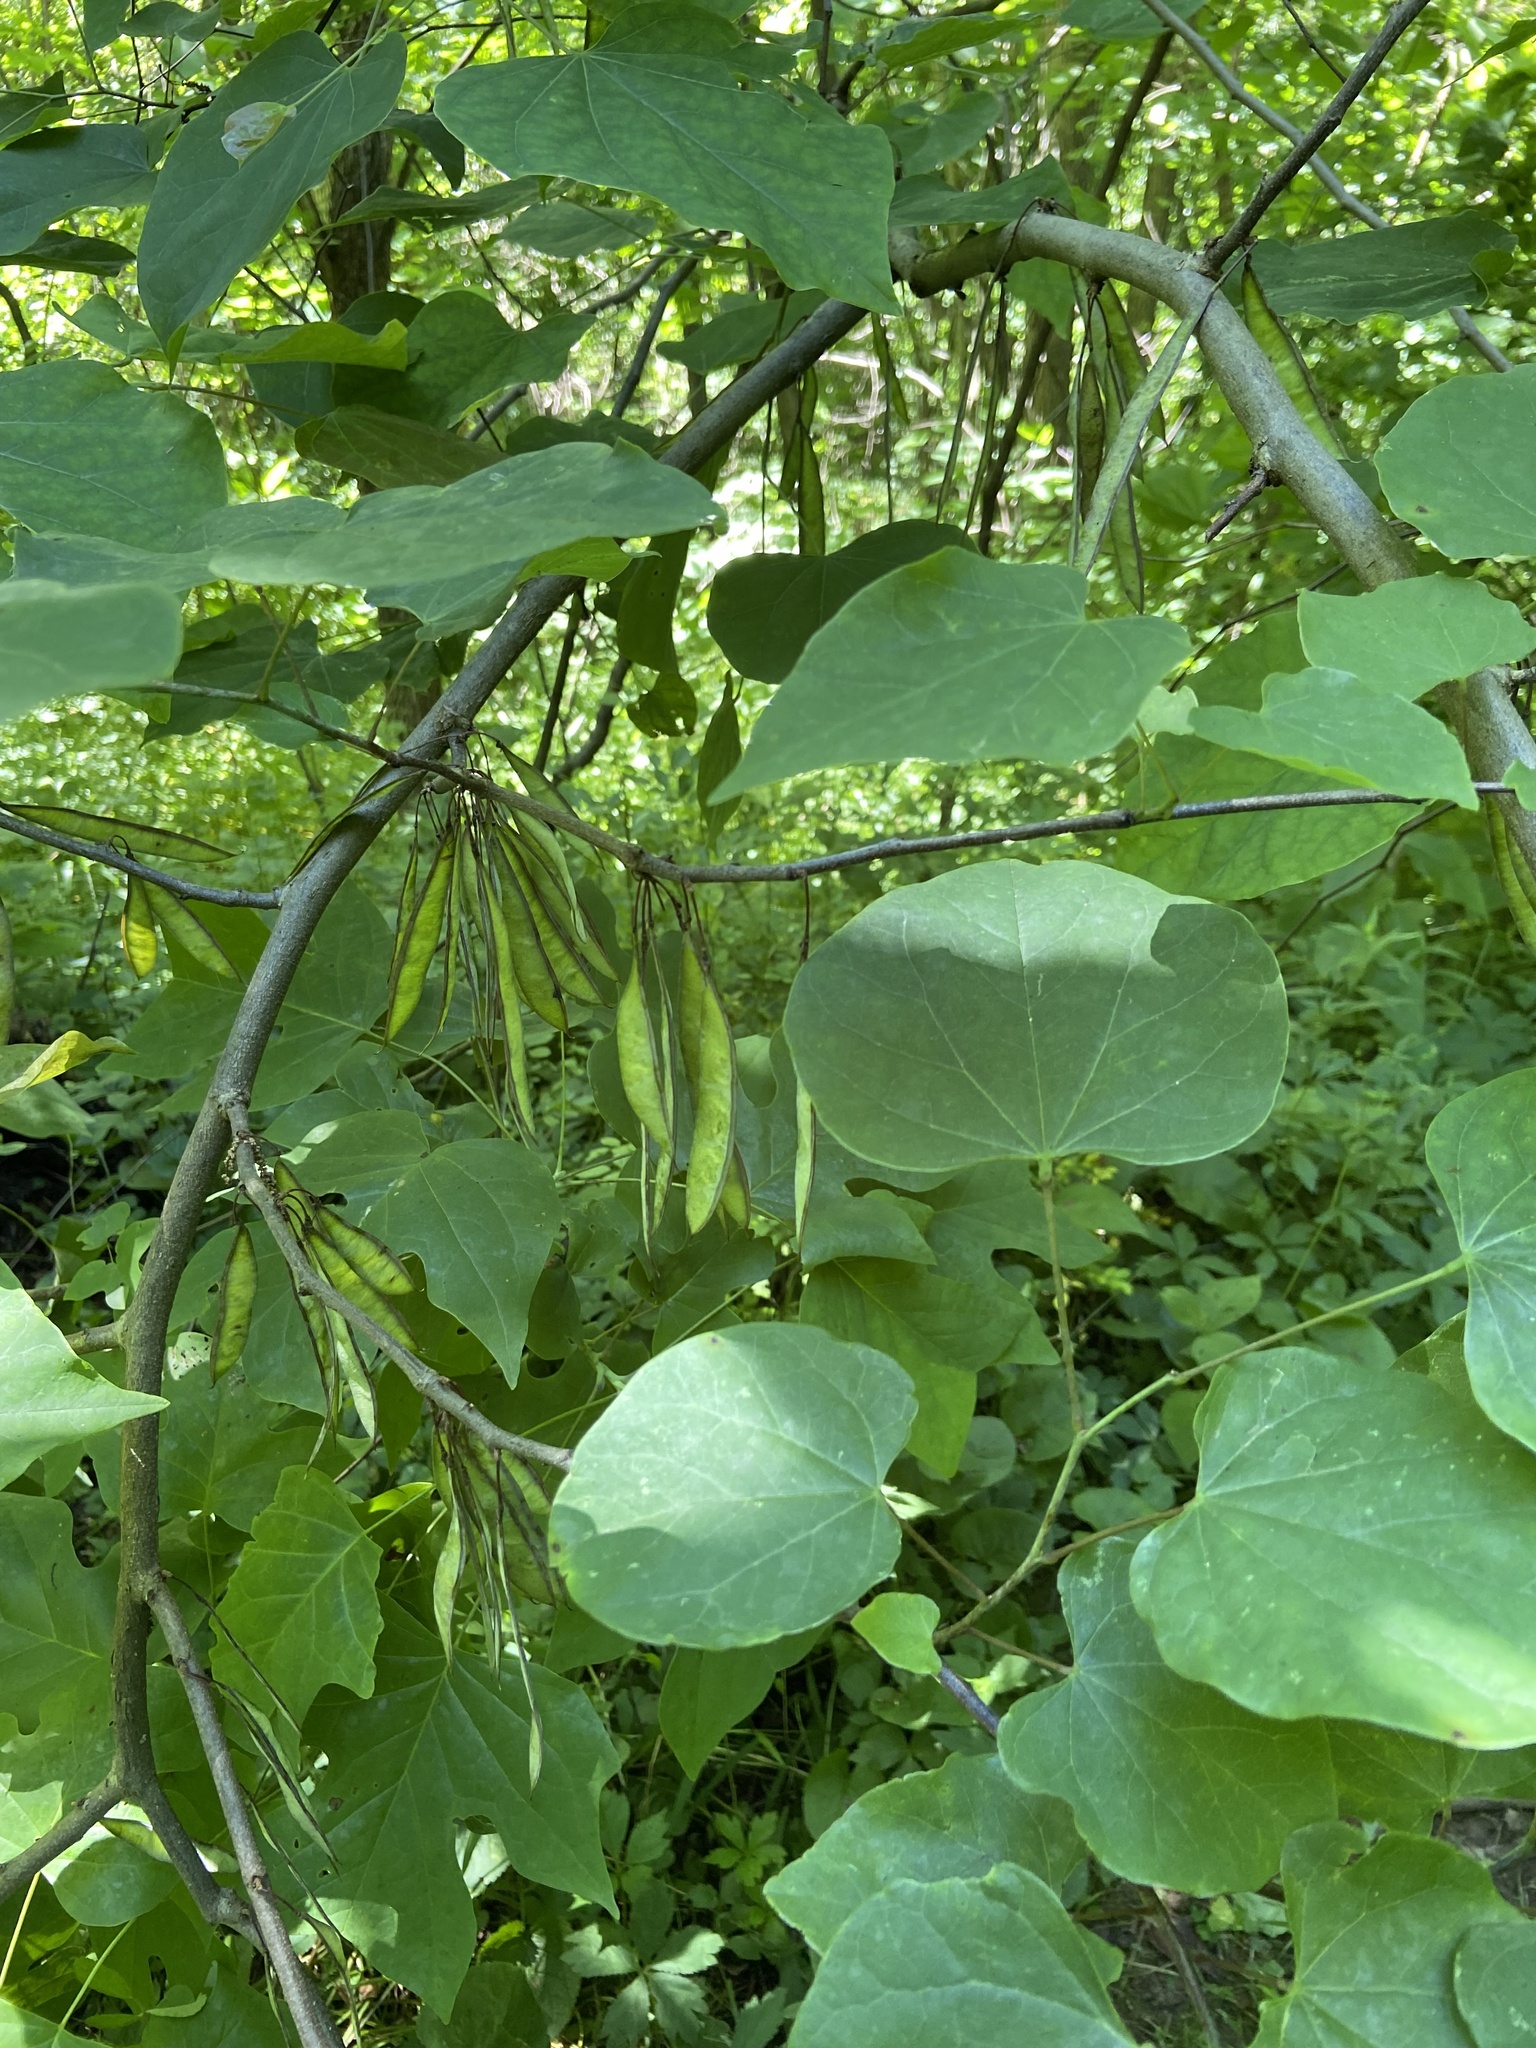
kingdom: Plantae
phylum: Tracheophyta
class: Magnoliopsida
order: Fabales
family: Fabaceae
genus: Cercis
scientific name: Cercis canadensis
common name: Eastern redbud
